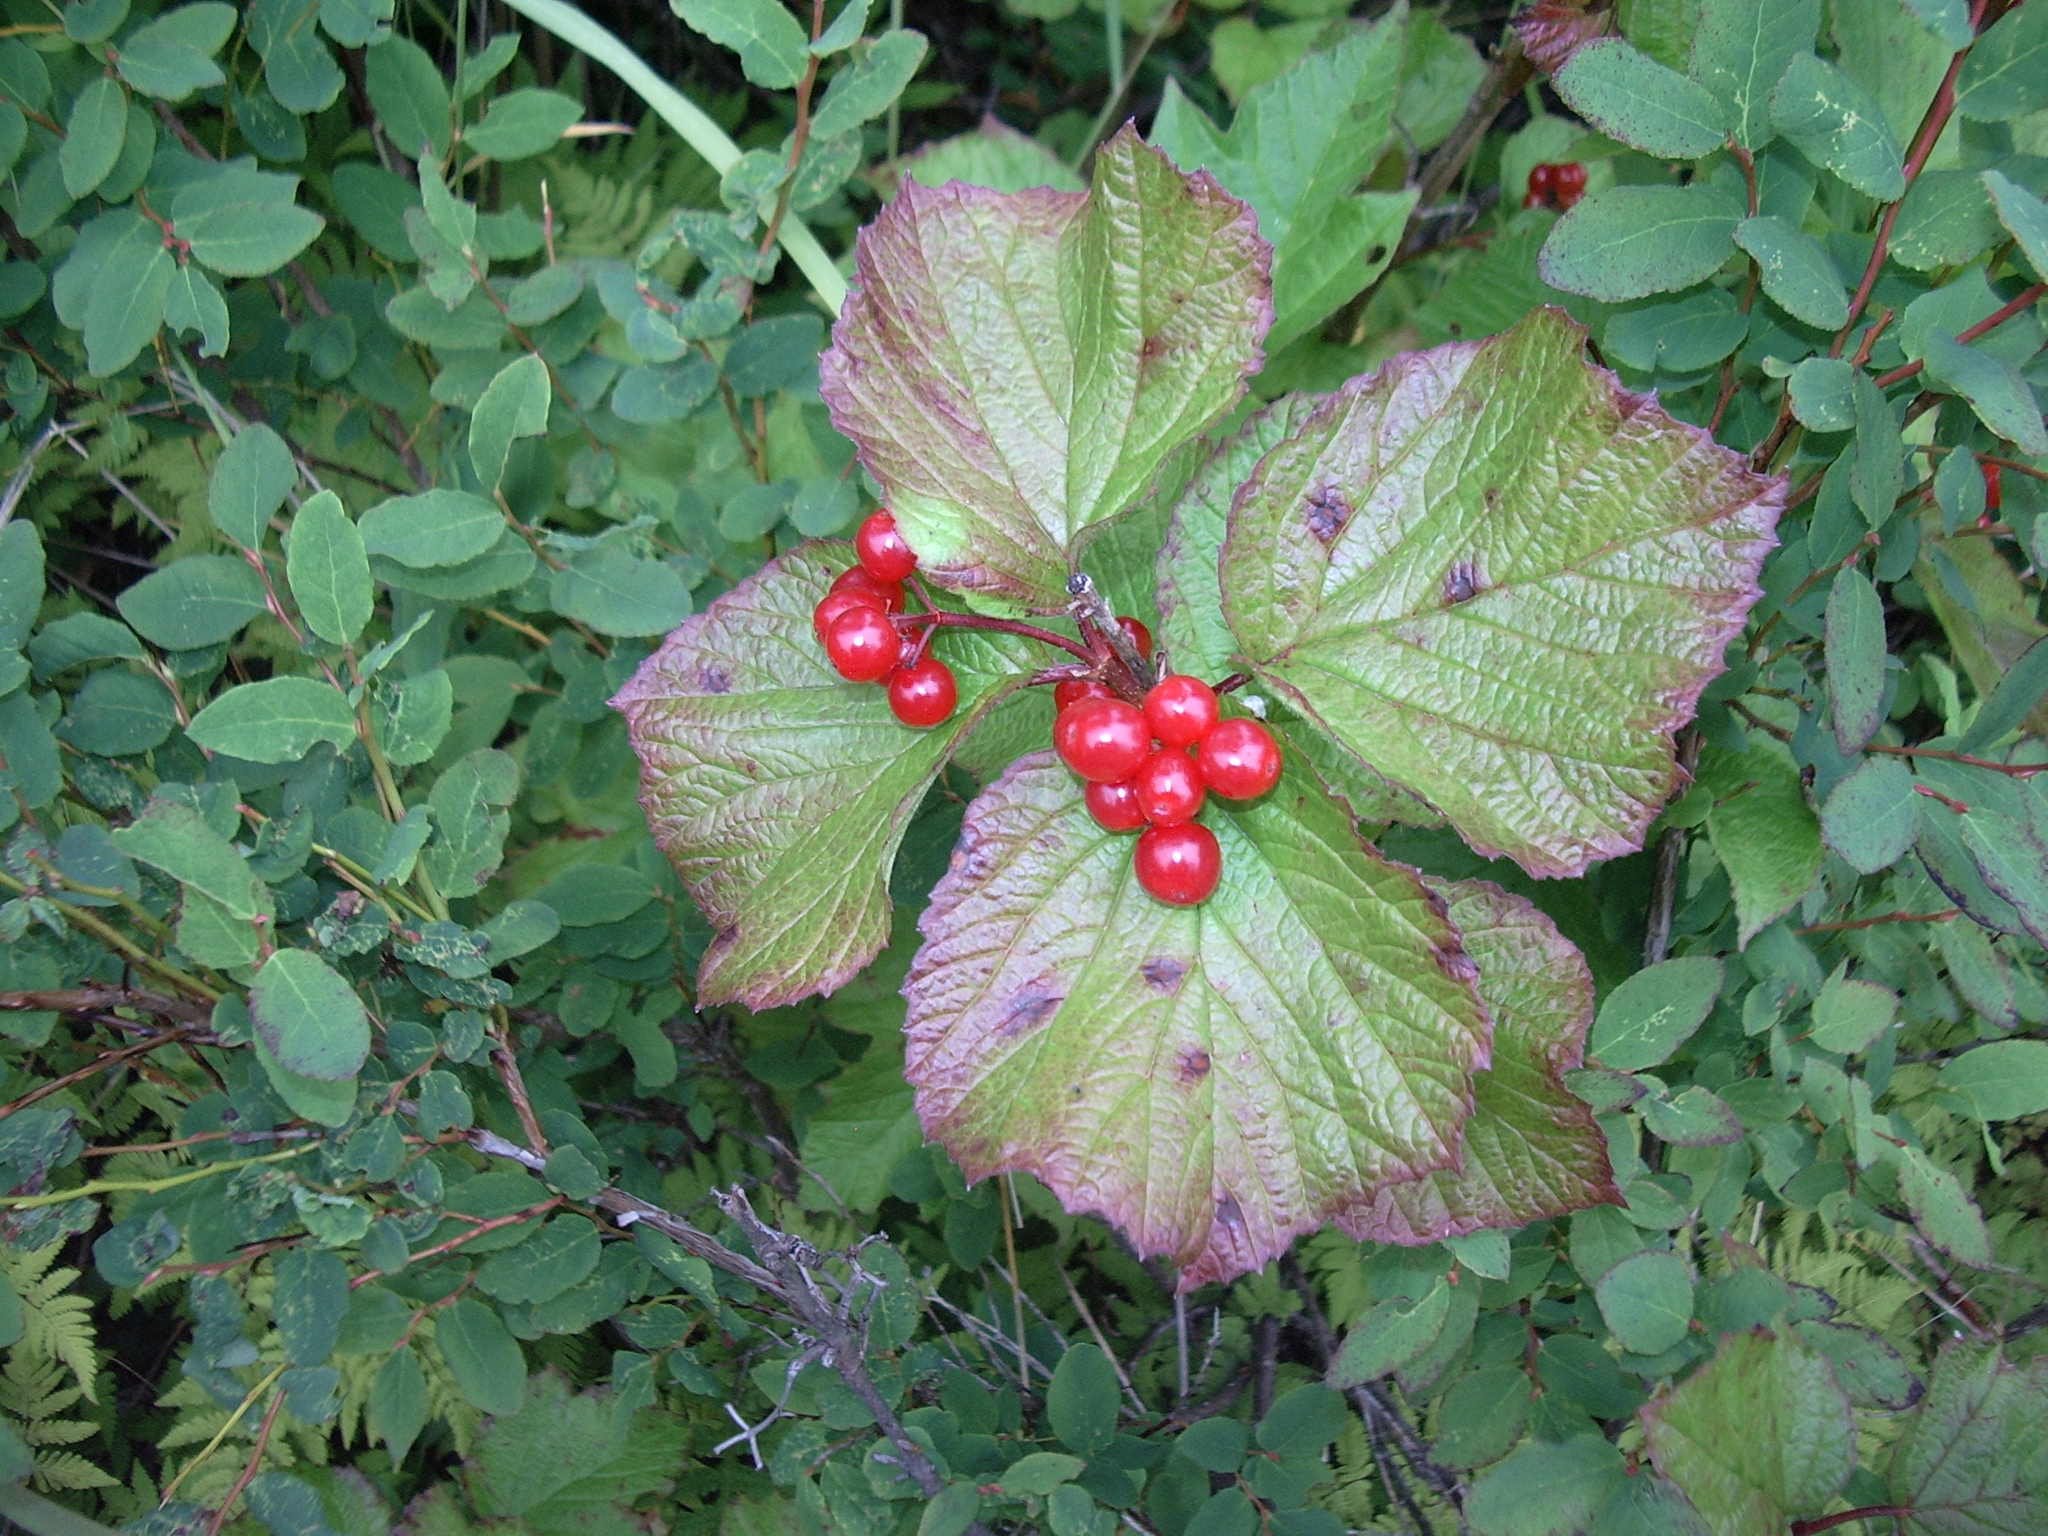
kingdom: Plantae
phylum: Tracheophyta
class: Magnoliopsida
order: Dipsacales
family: Viburnaceae
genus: Viburnum
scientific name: Viburnum edule
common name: Mooseberry
